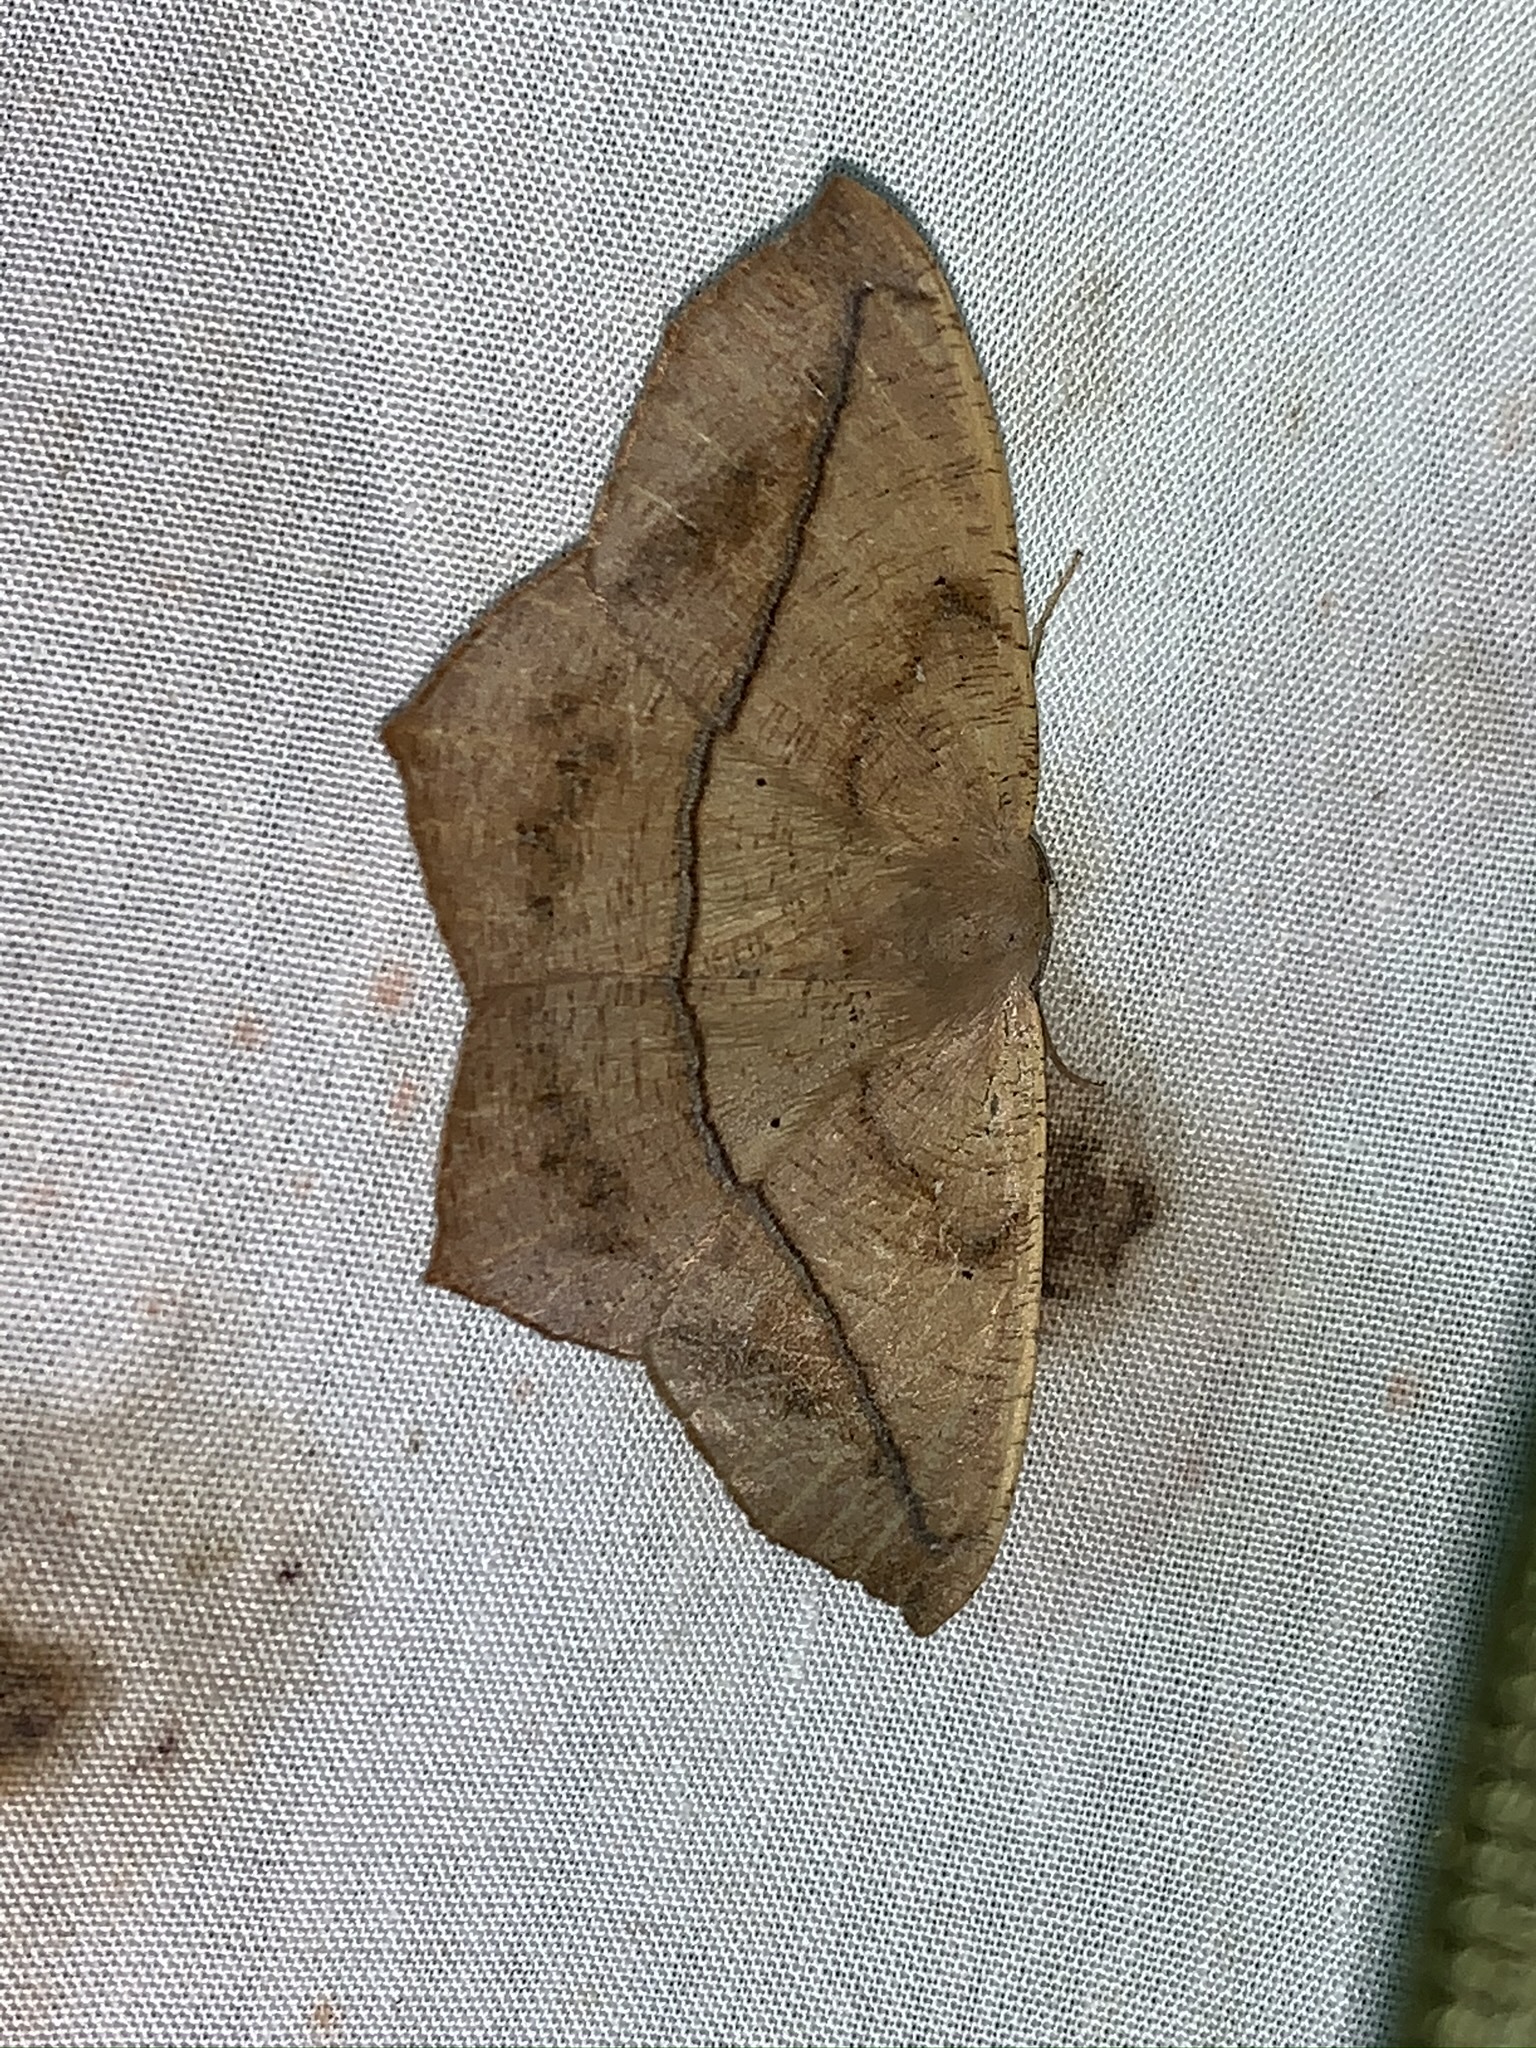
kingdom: Animalia
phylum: Arthropoda
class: Insecta
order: Lepidoptera
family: Geometridae
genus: Prochoerodes
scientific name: Prochoerodes lineola
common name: Large maple spanworm
